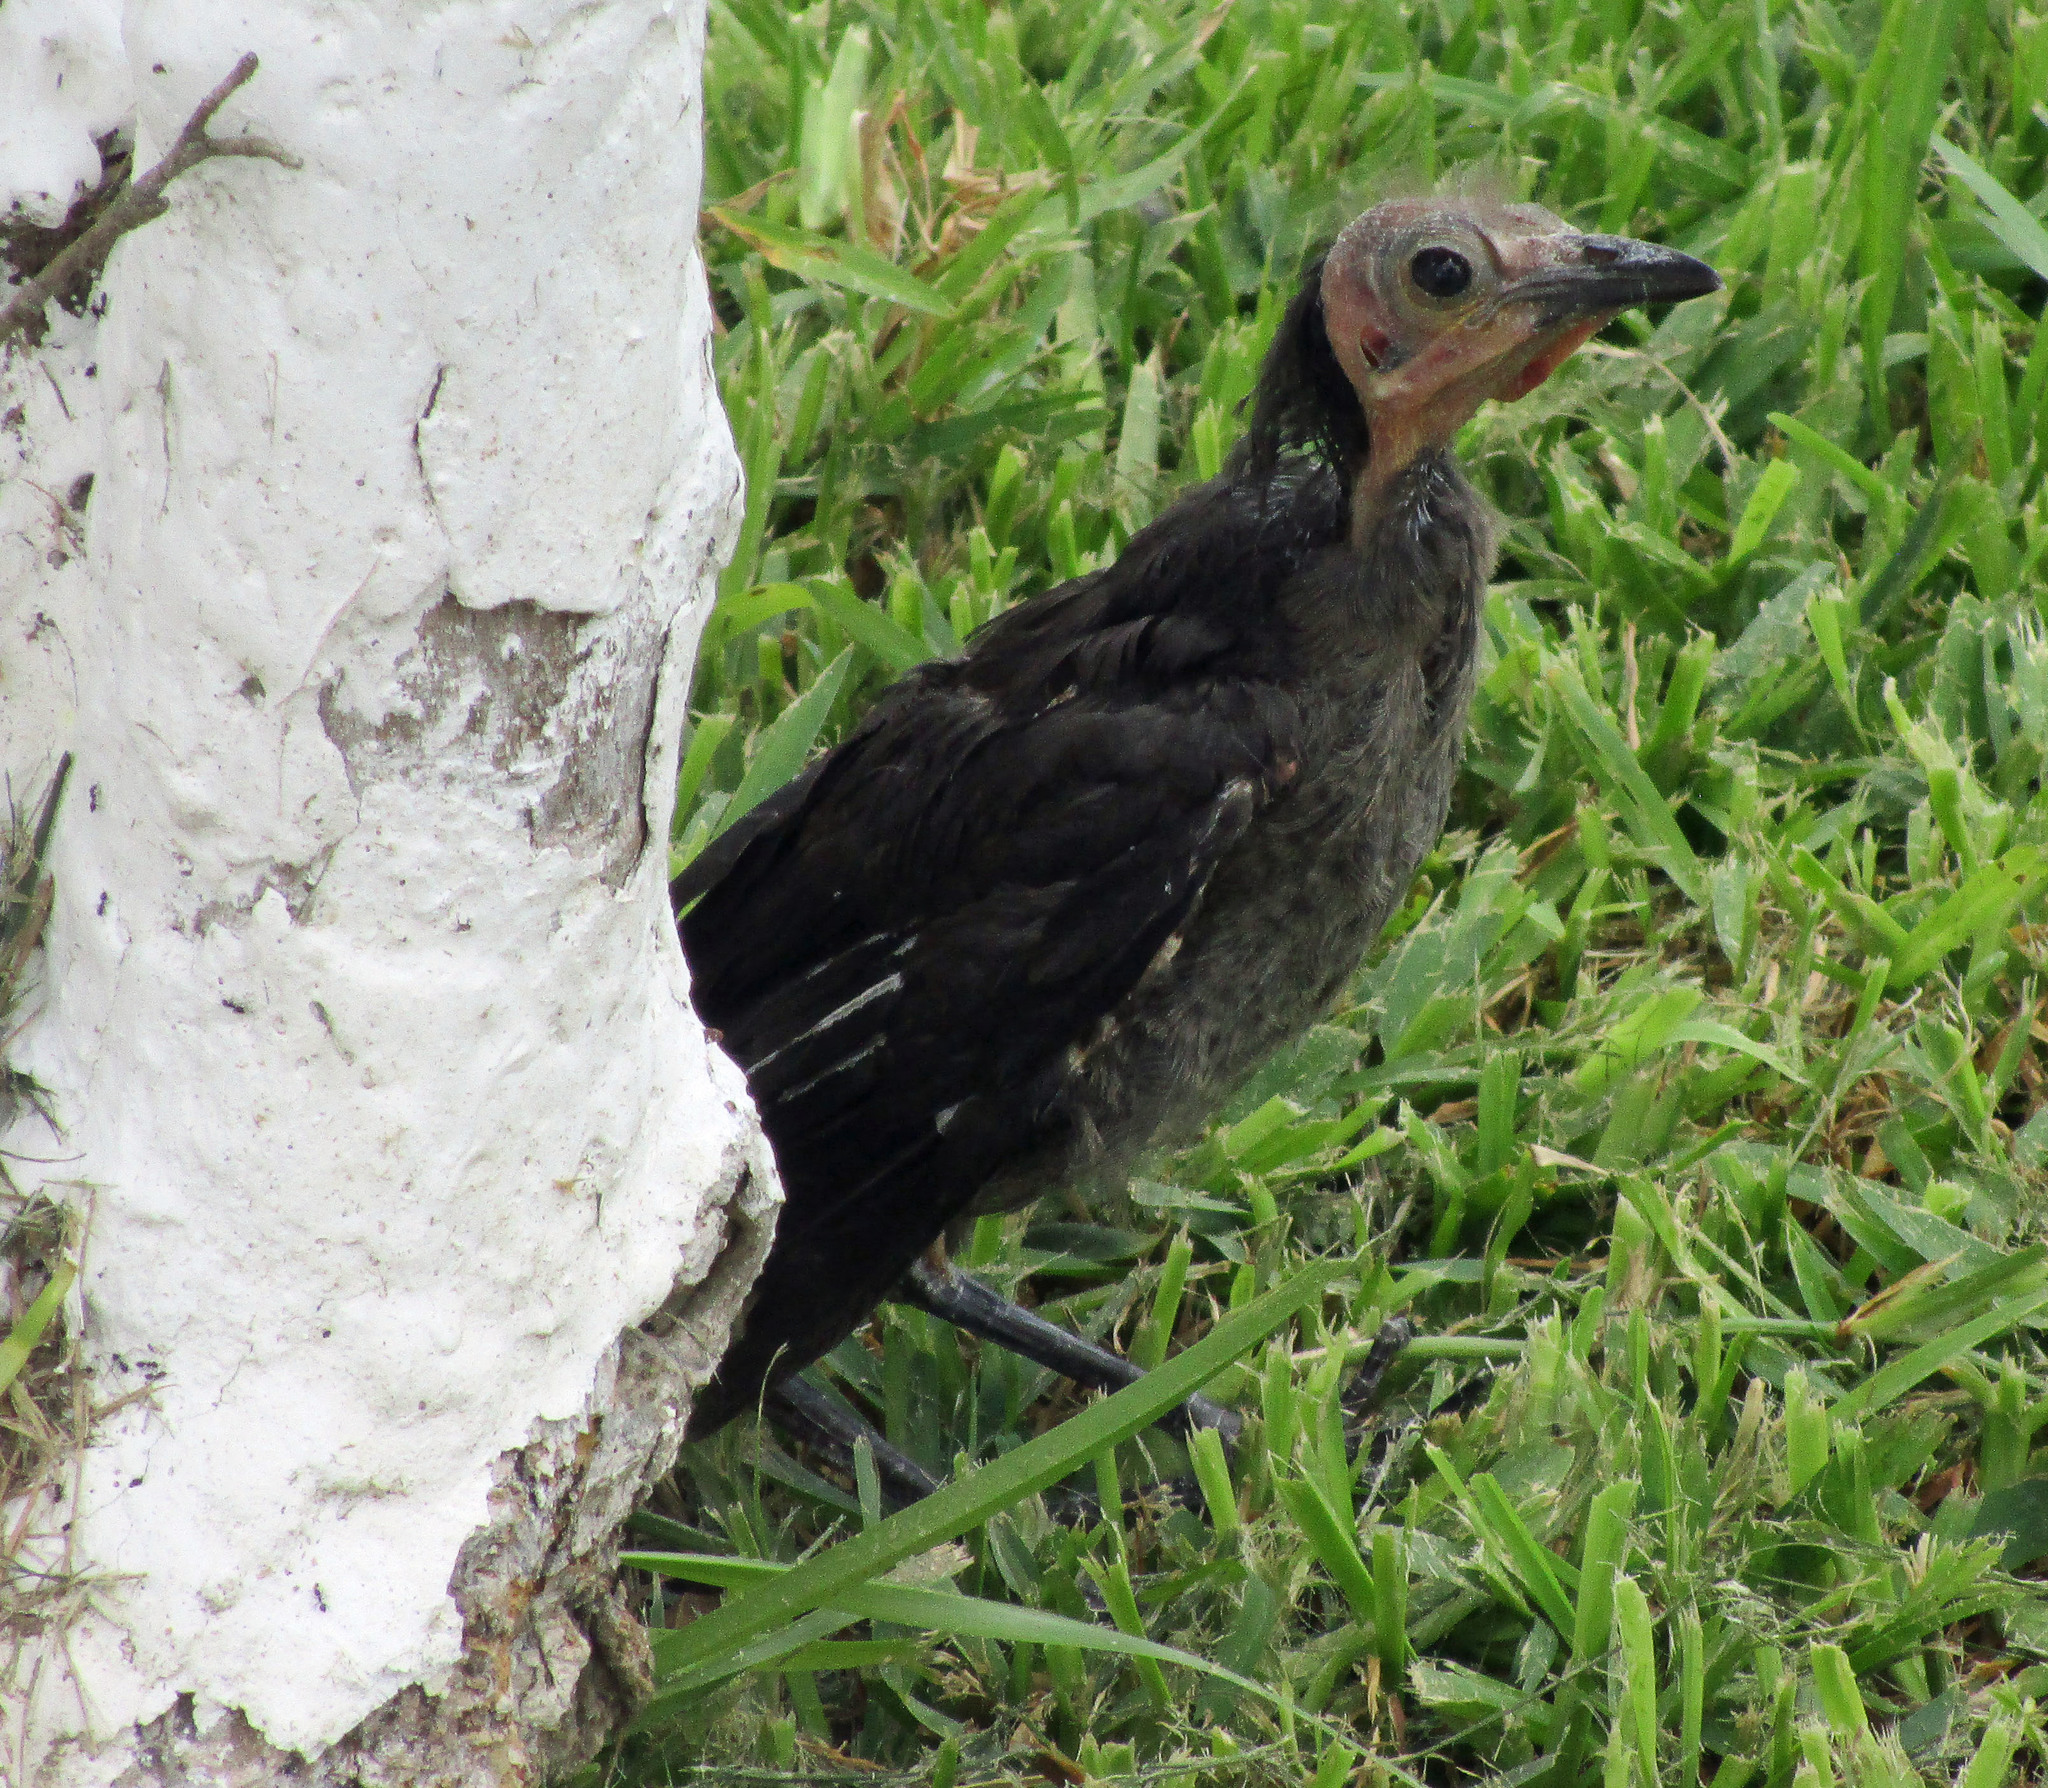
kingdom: Animalia
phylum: Chordata
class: Aves
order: Passeriformes
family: Icteridae
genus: Quiscalus
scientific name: Quiscalus mexicanus
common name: Great-tailed grackle
